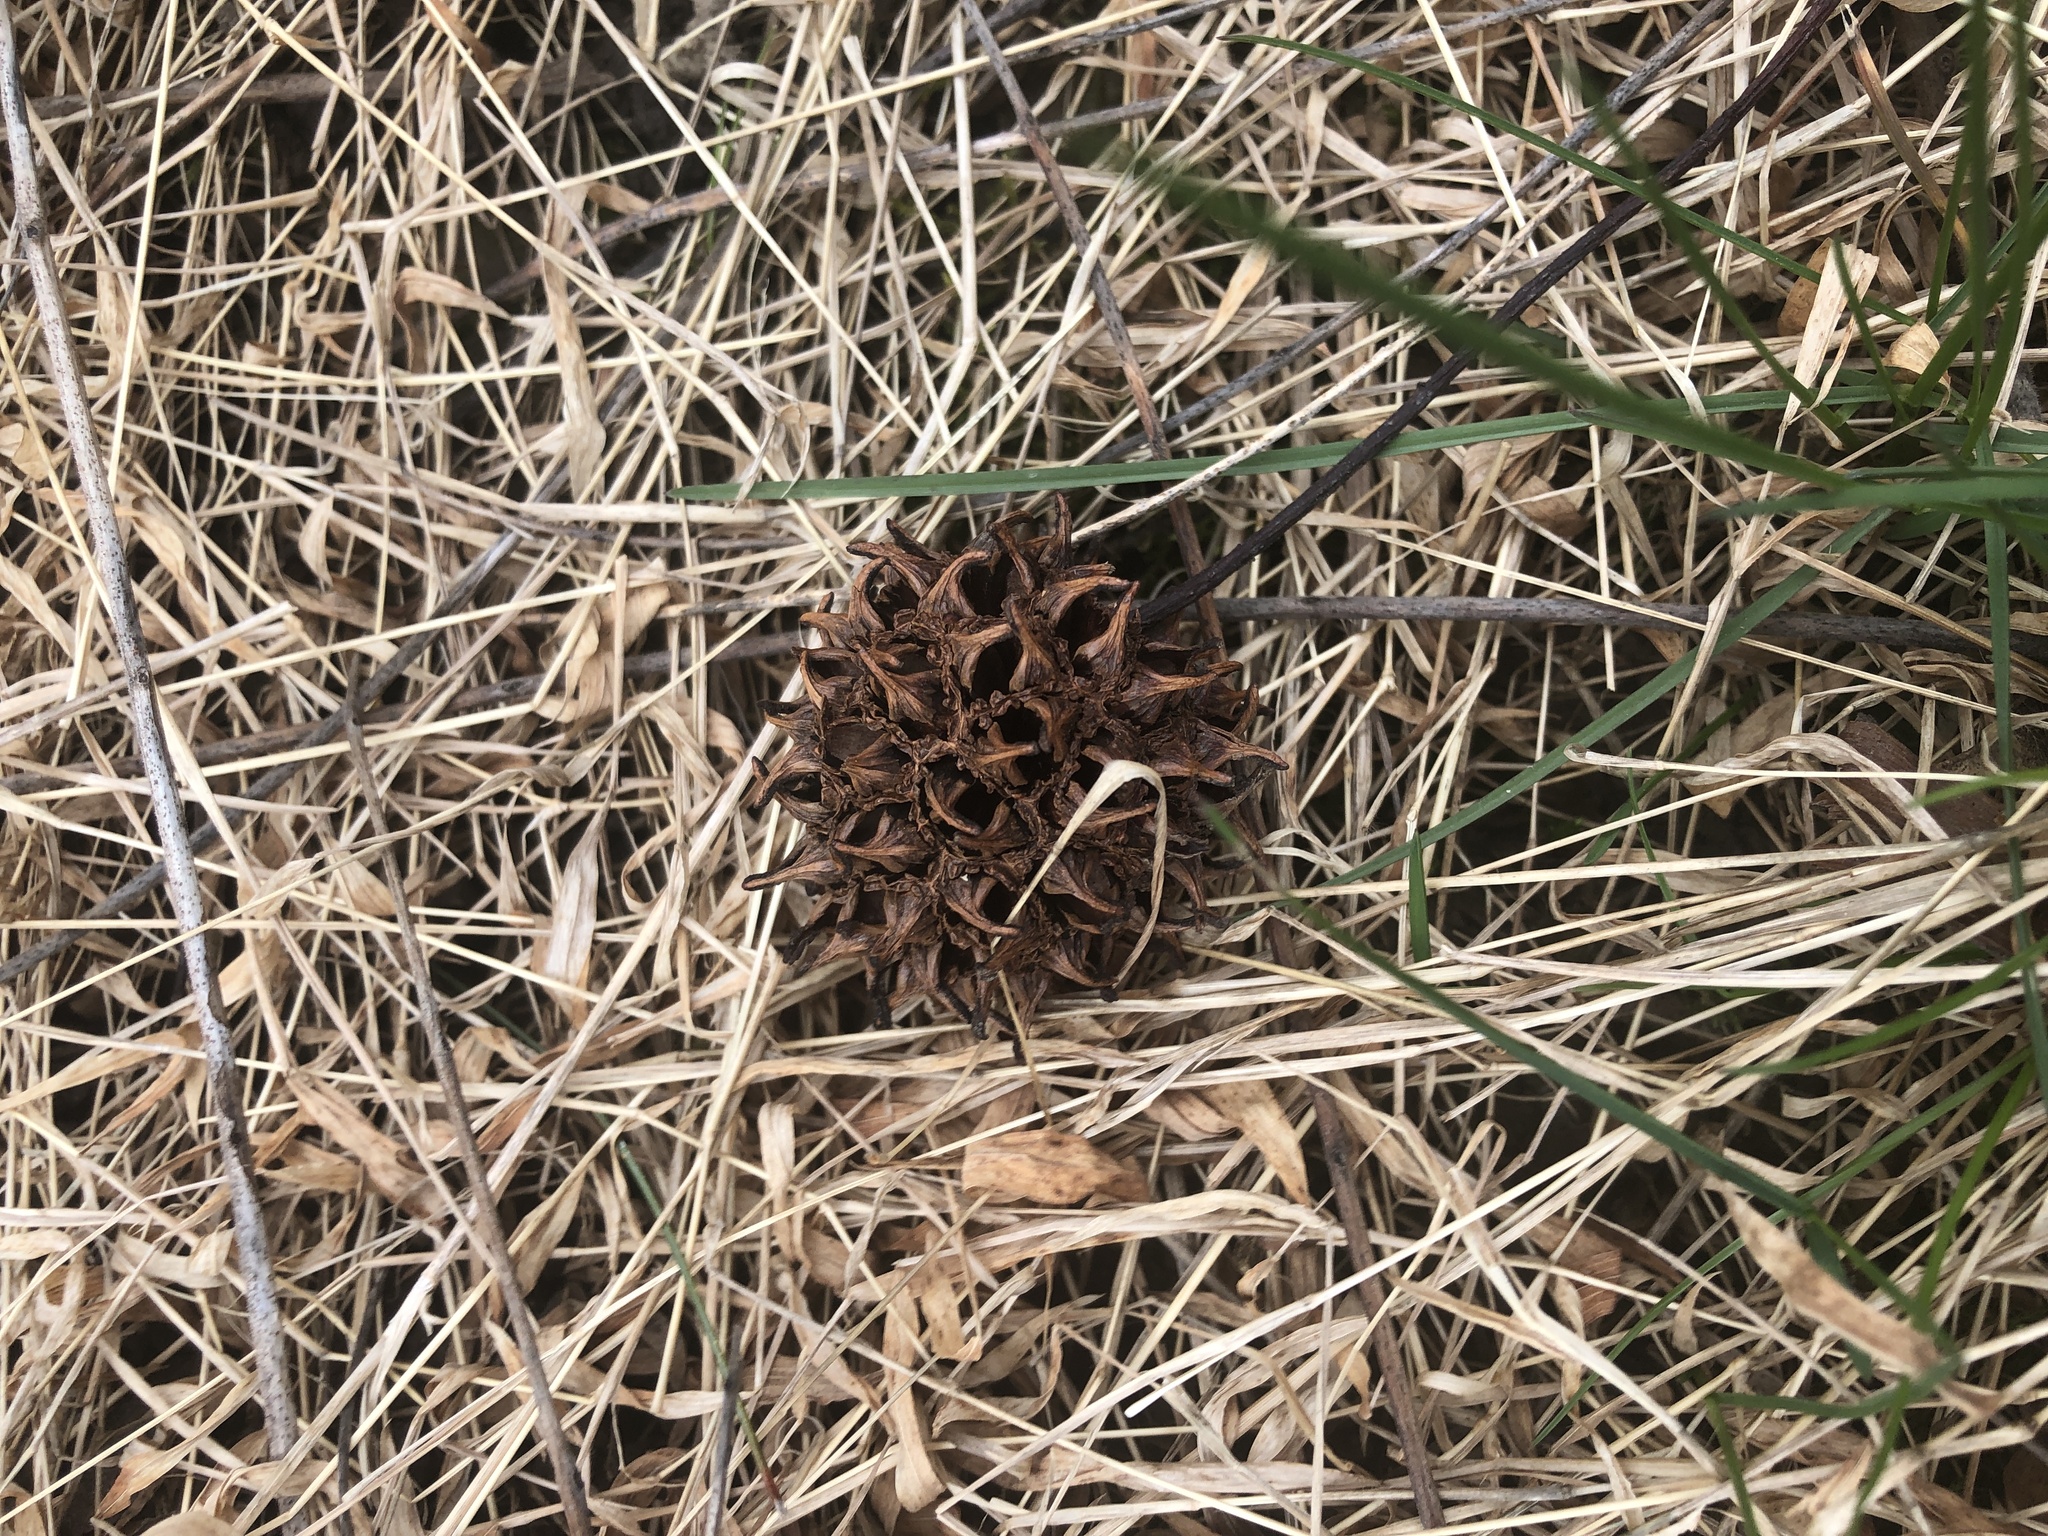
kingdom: Plantae
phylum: Tracheophyta
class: Magnoliopsida
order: Saxifragales
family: Altingiaceae
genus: Liquidambar
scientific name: Liquidambar styraciflua
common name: Sweet gum
